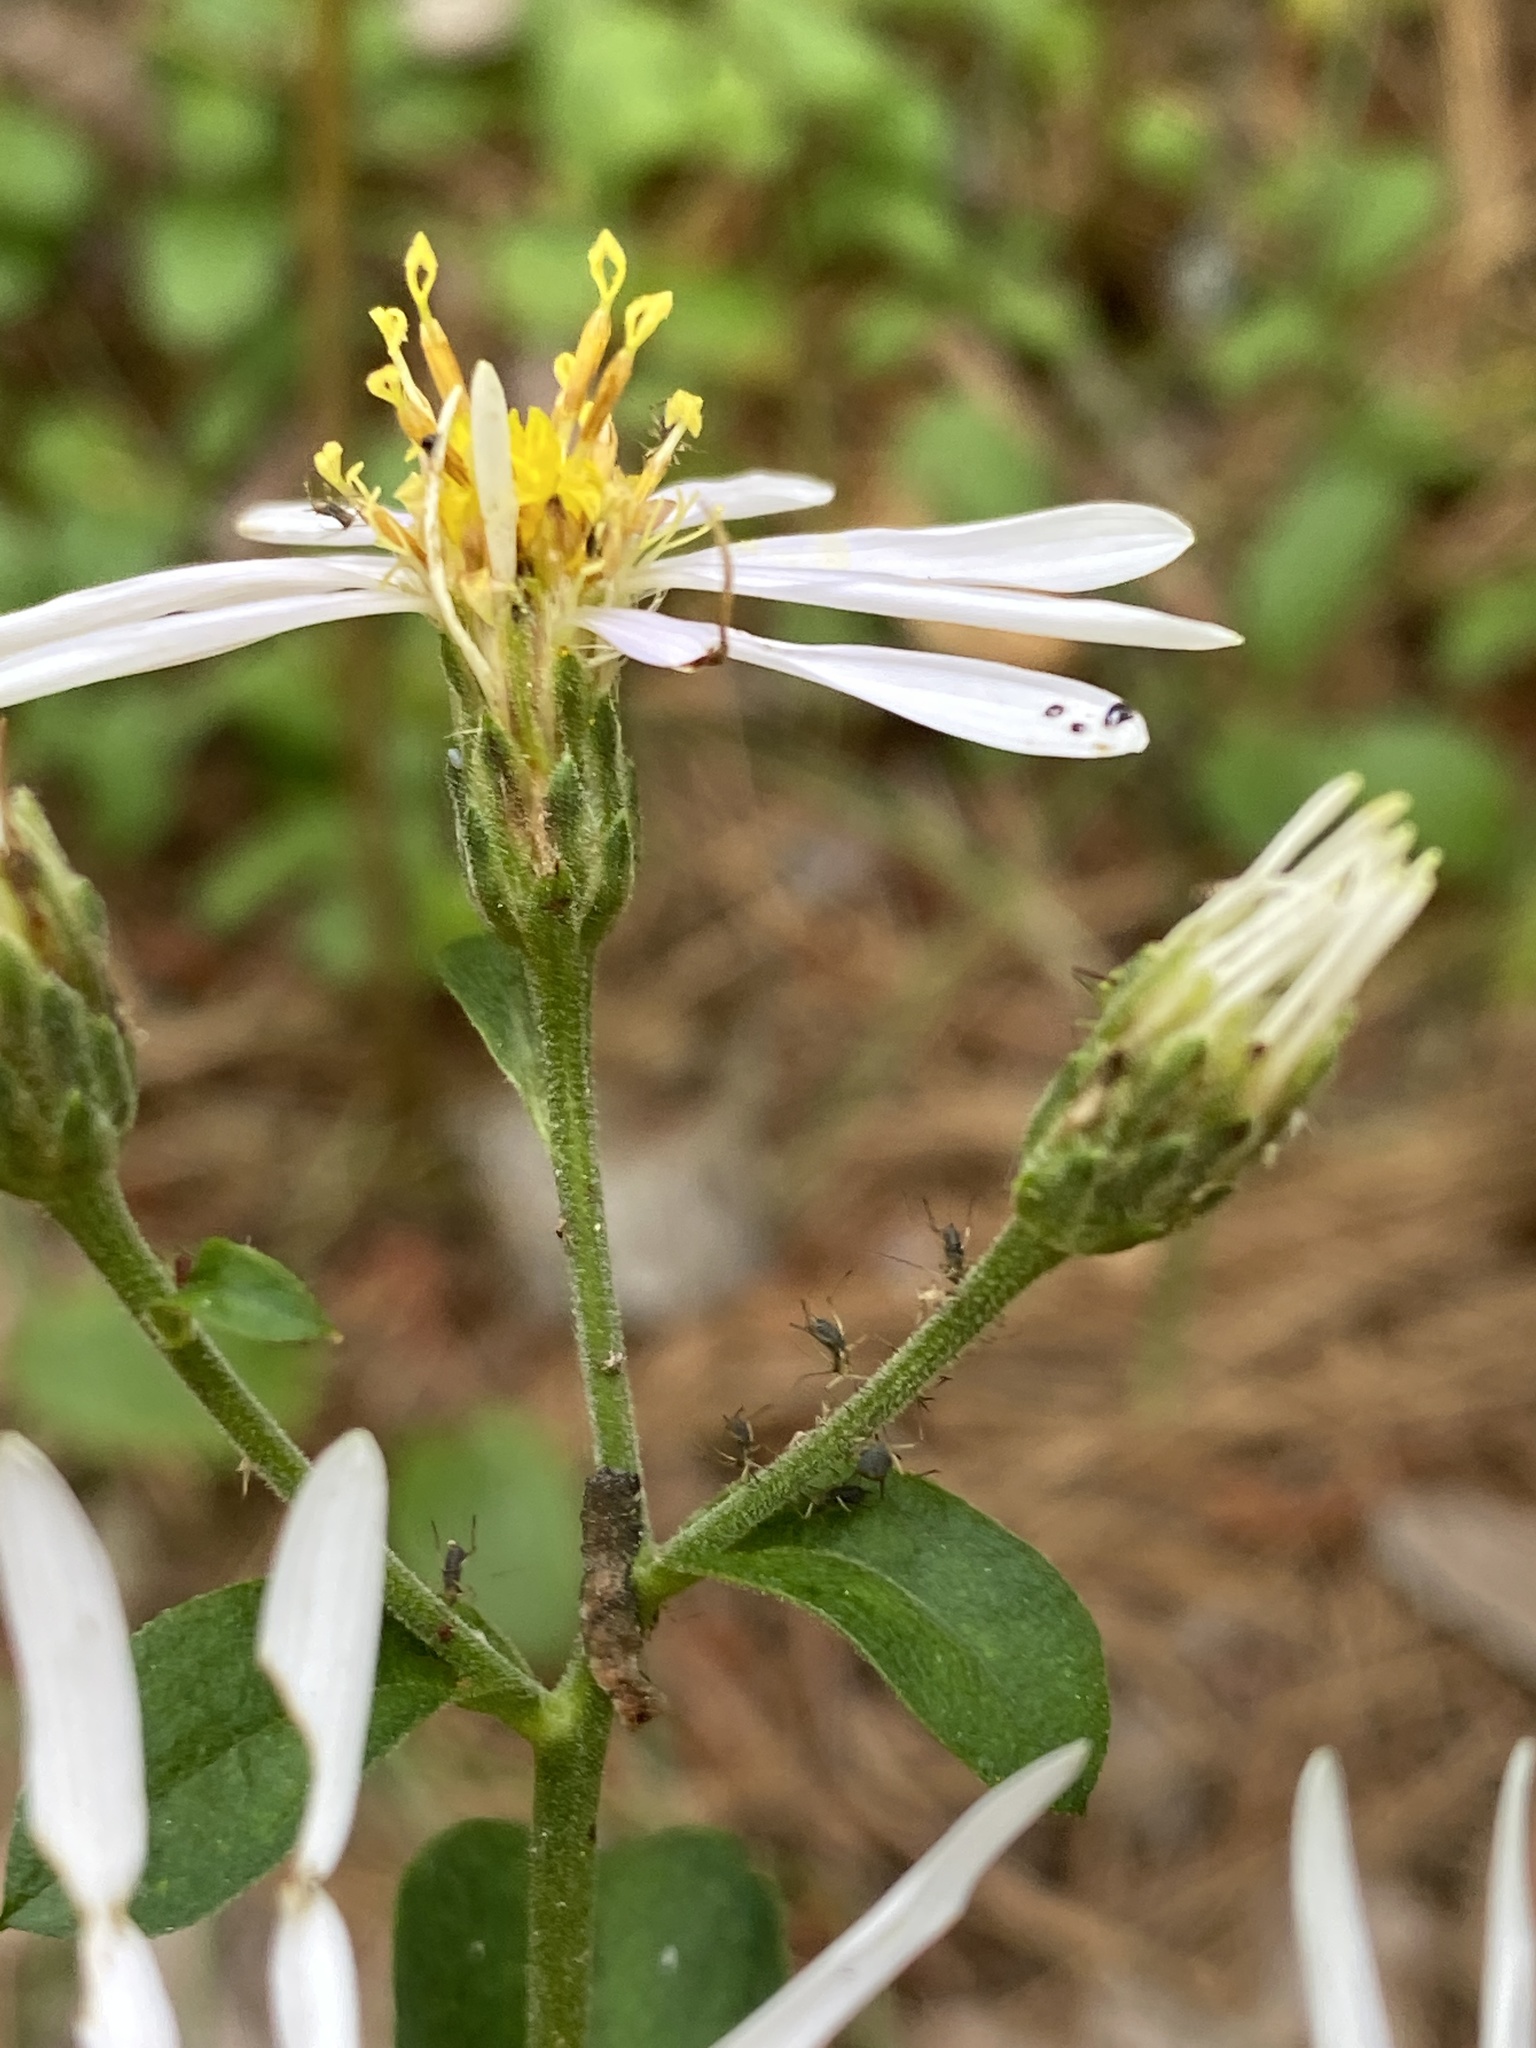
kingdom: Plantae
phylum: Tracheophyta
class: Magnoliopsida
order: Asterales
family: Asteraceae
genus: Eurybia
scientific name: Eurybia macrophylla
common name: Big-leaved aster
